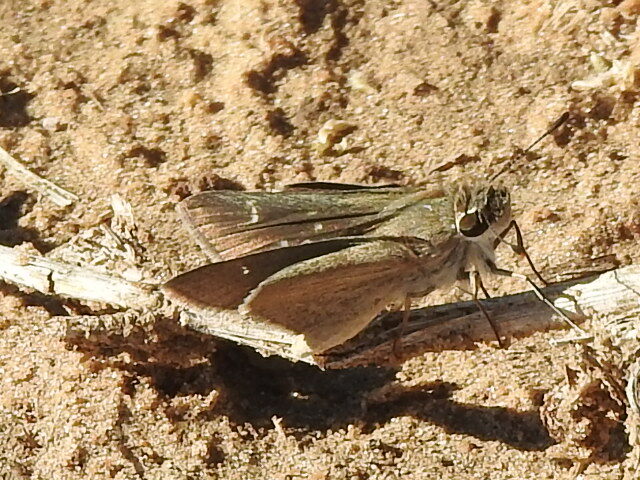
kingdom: Animalia
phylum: Arthropoda
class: Insecta
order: Lepidoptera
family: Hesperiidae
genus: Lerodea
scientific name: Lerodea eufala
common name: Eufala skipper
